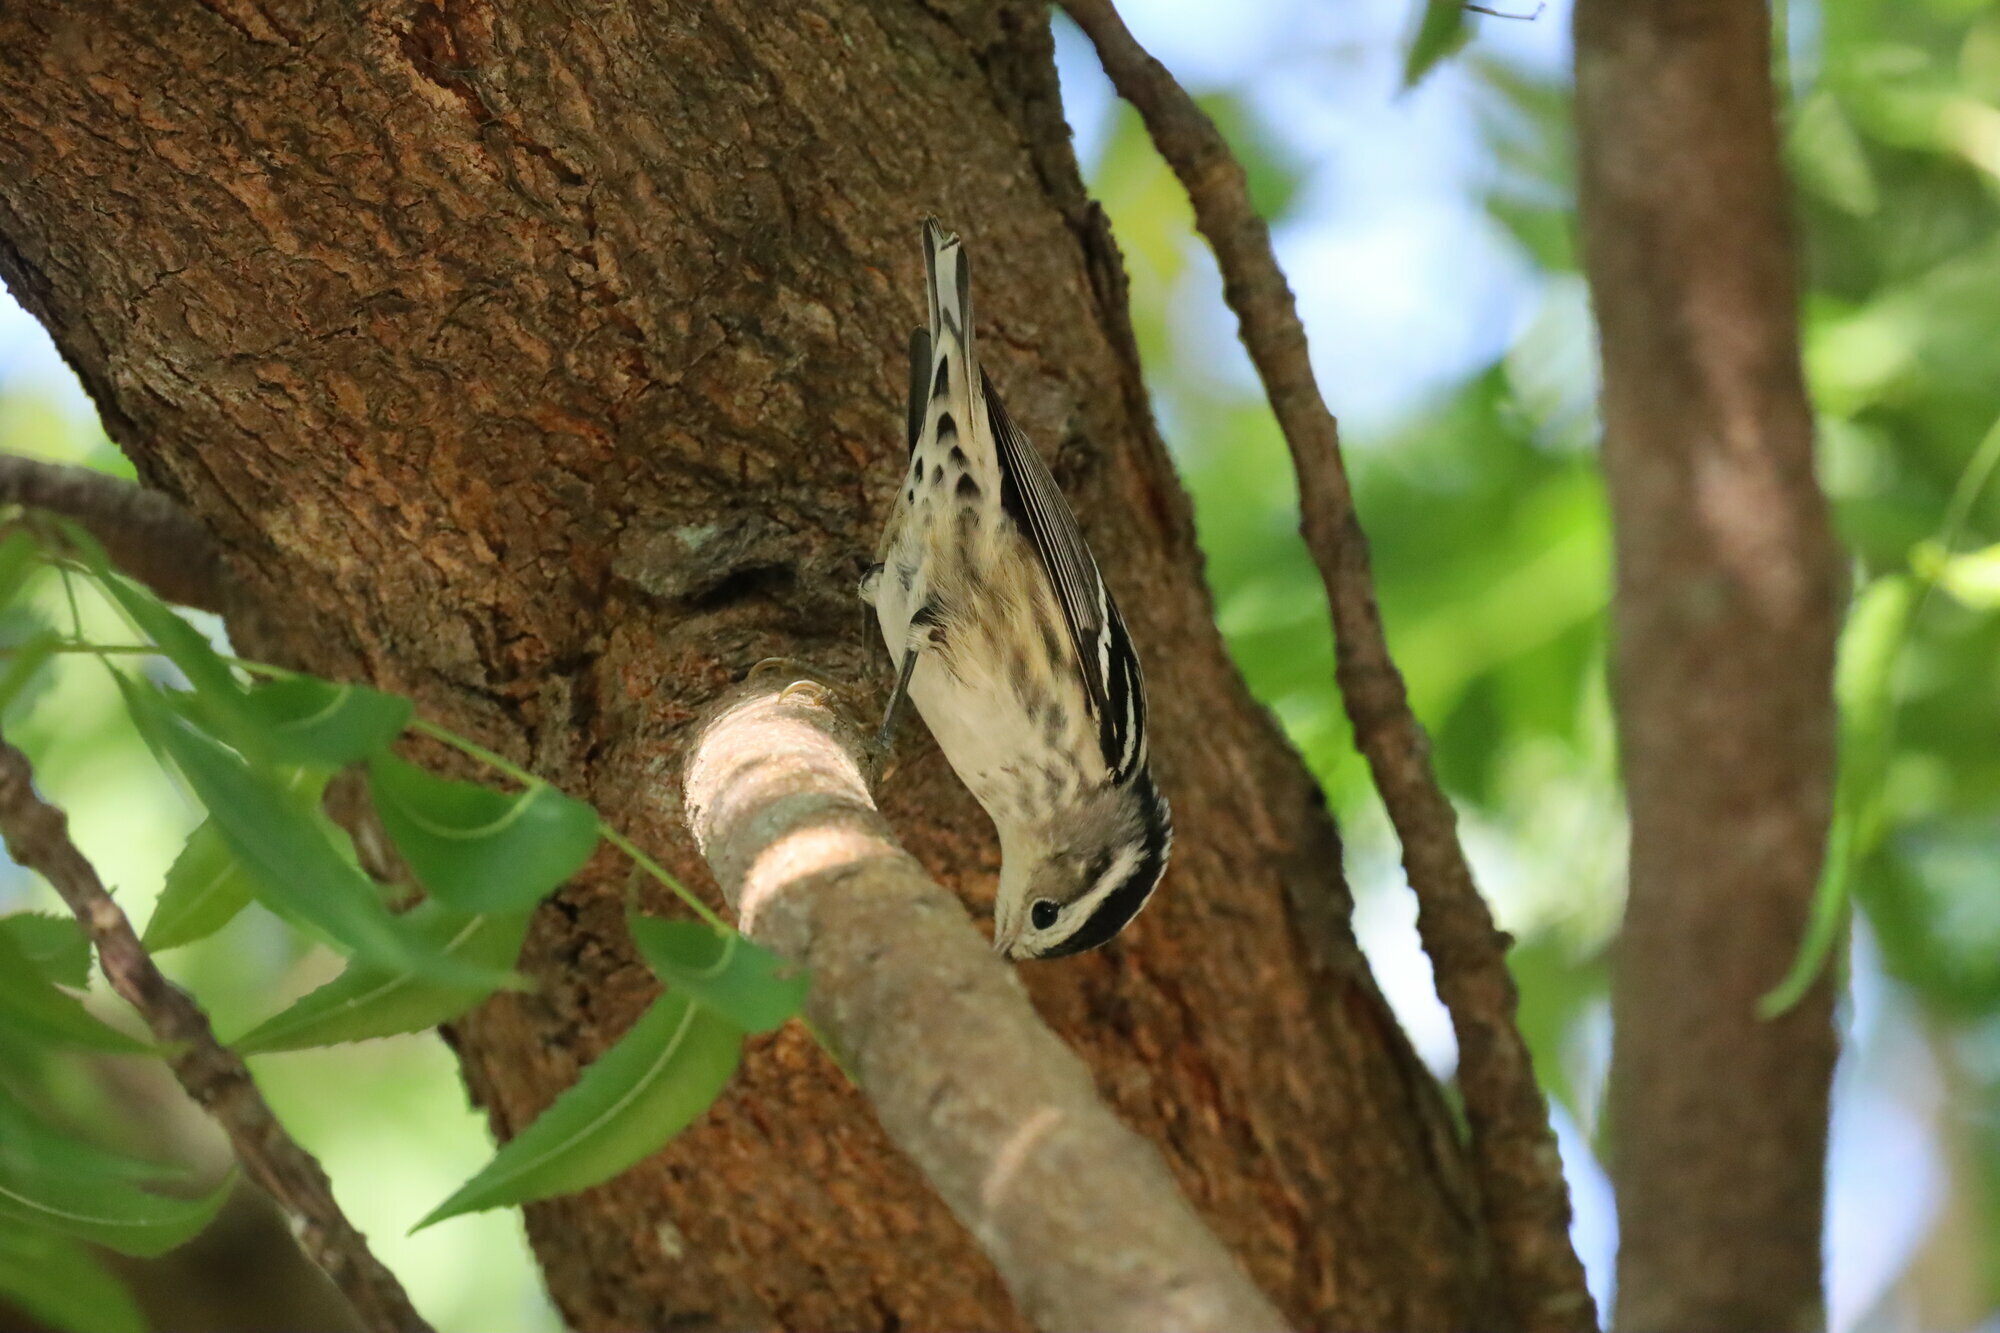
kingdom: Animalia
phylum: Chordata
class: Aves
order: Passeriformes
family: Parulidae
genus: Mniotilta
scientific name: Mniotilta varia
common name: Black-and-white warbler
